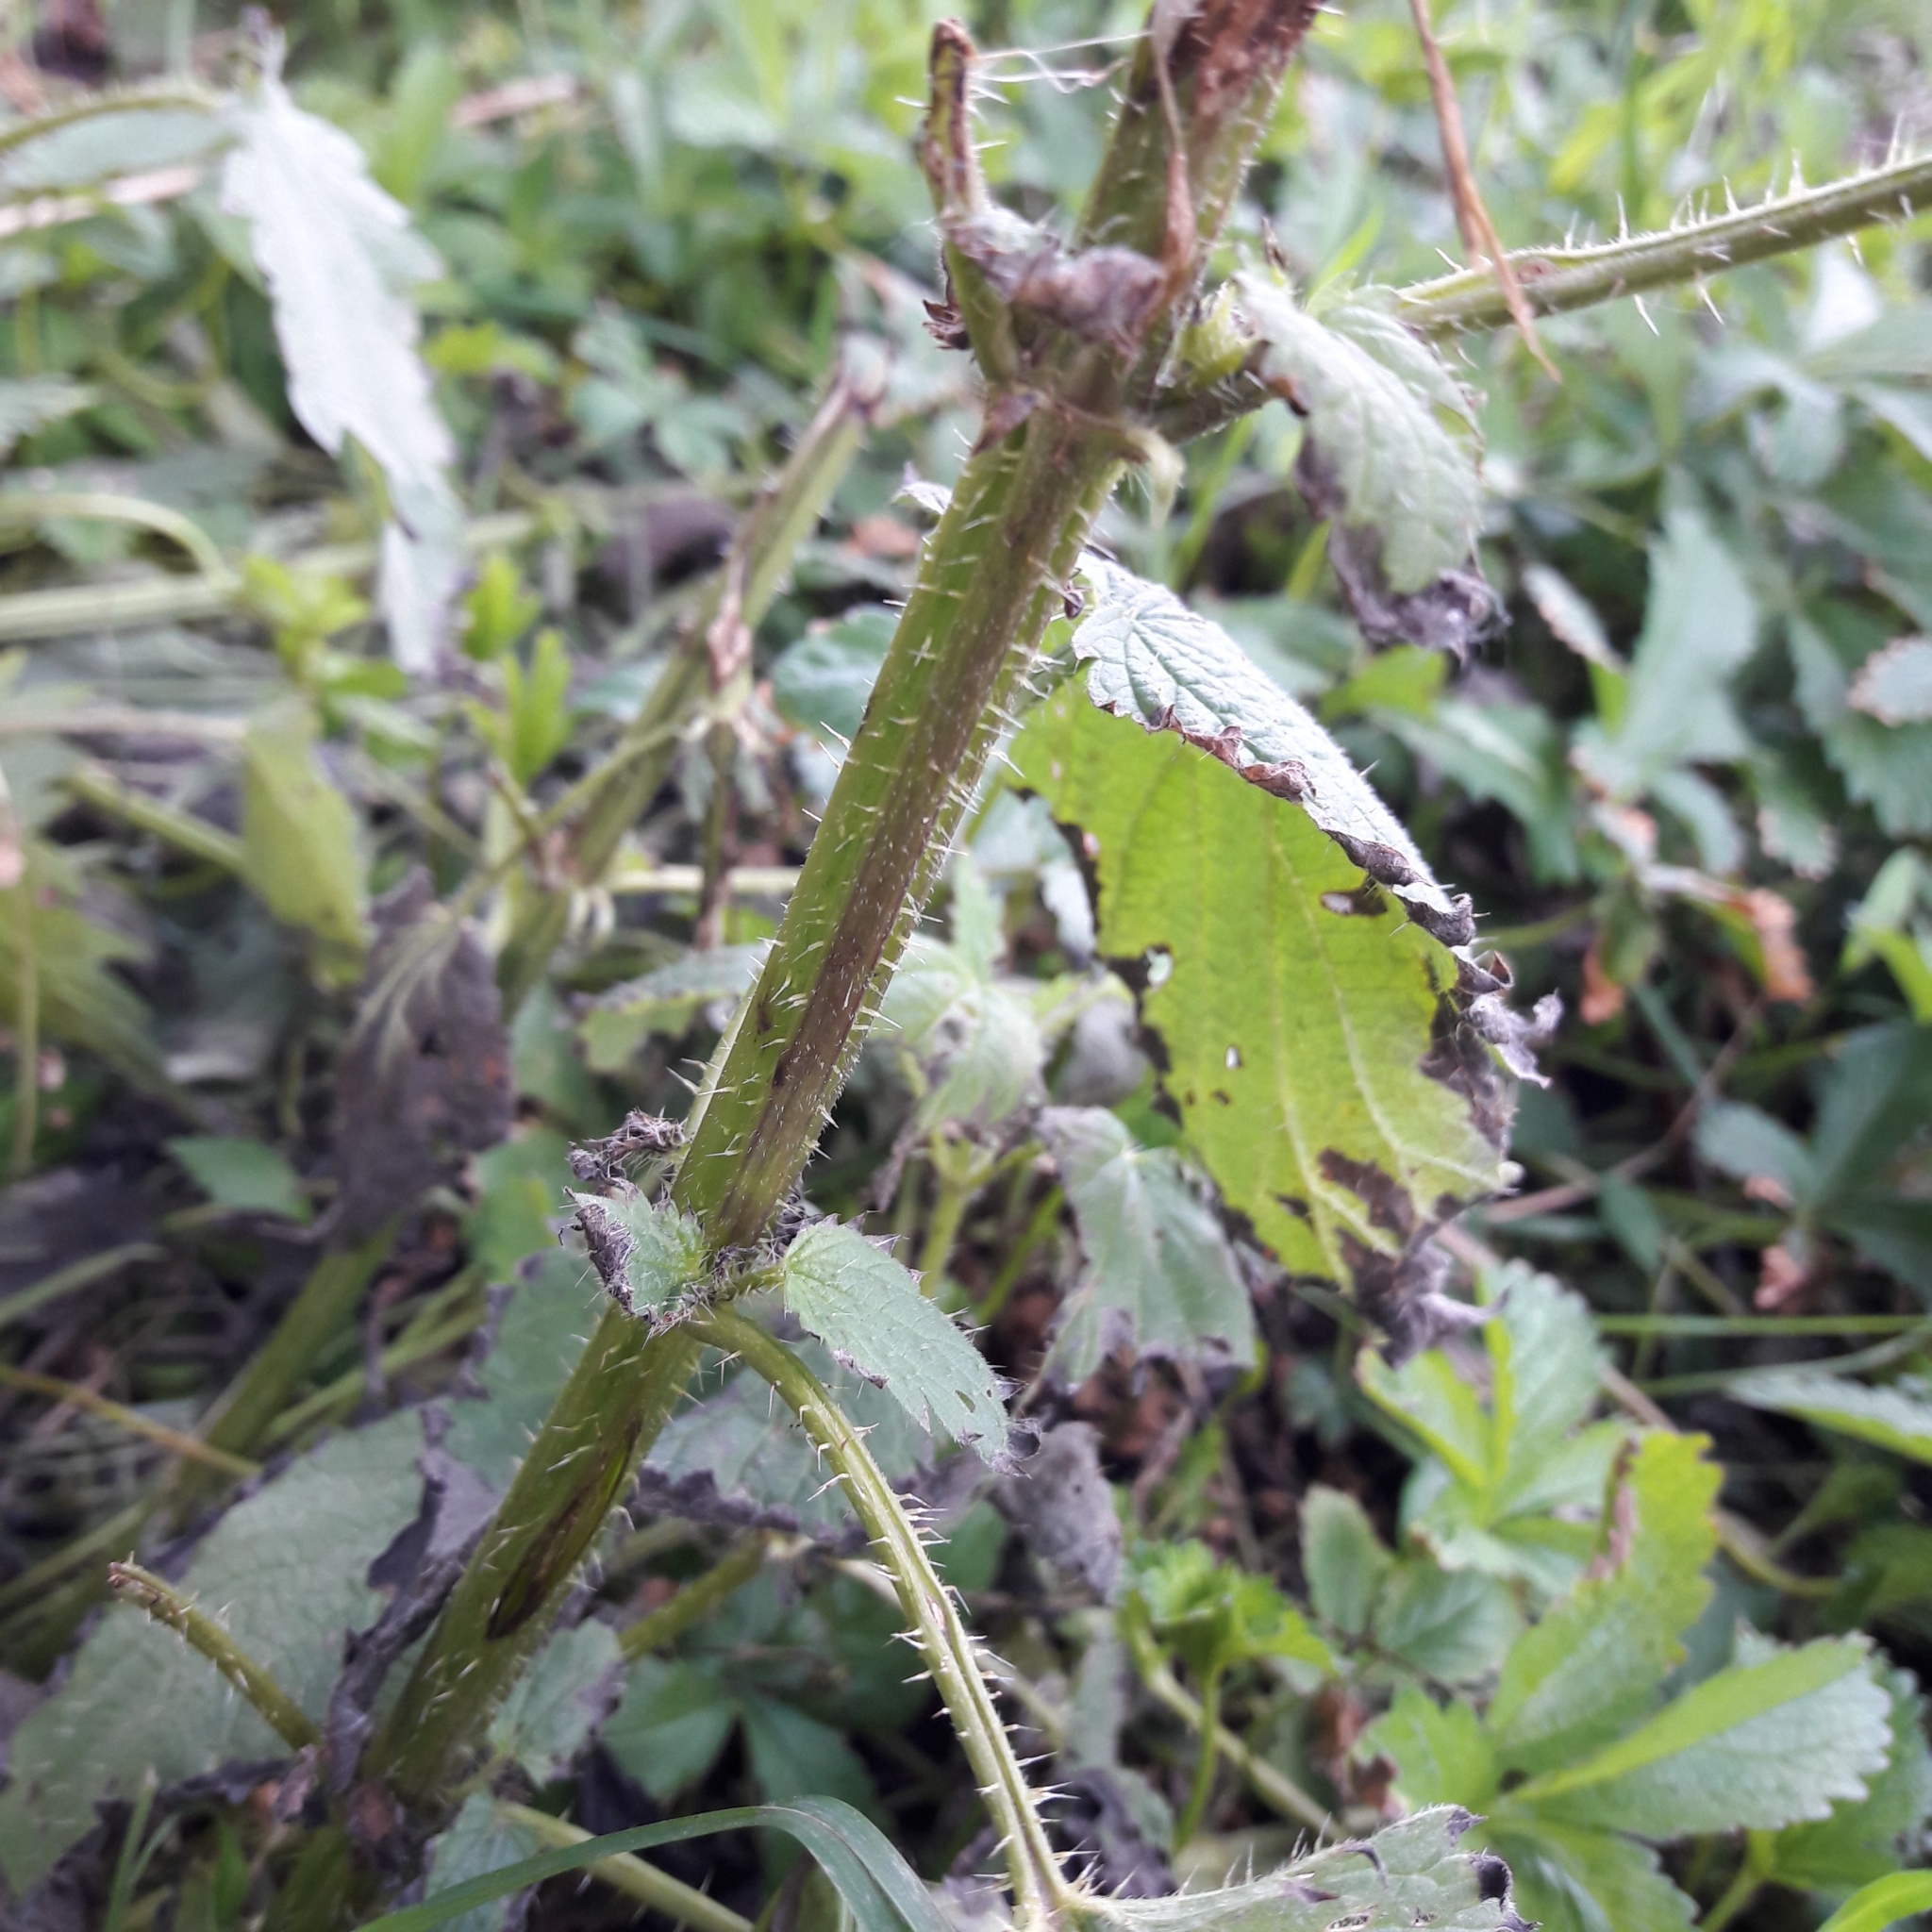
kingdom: Plantae
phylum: Tracheophyta
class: Magnoliopsida
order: Rosales
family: Urticaceae
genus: Urtica
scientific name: Urtica dioica
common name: Common nettle
